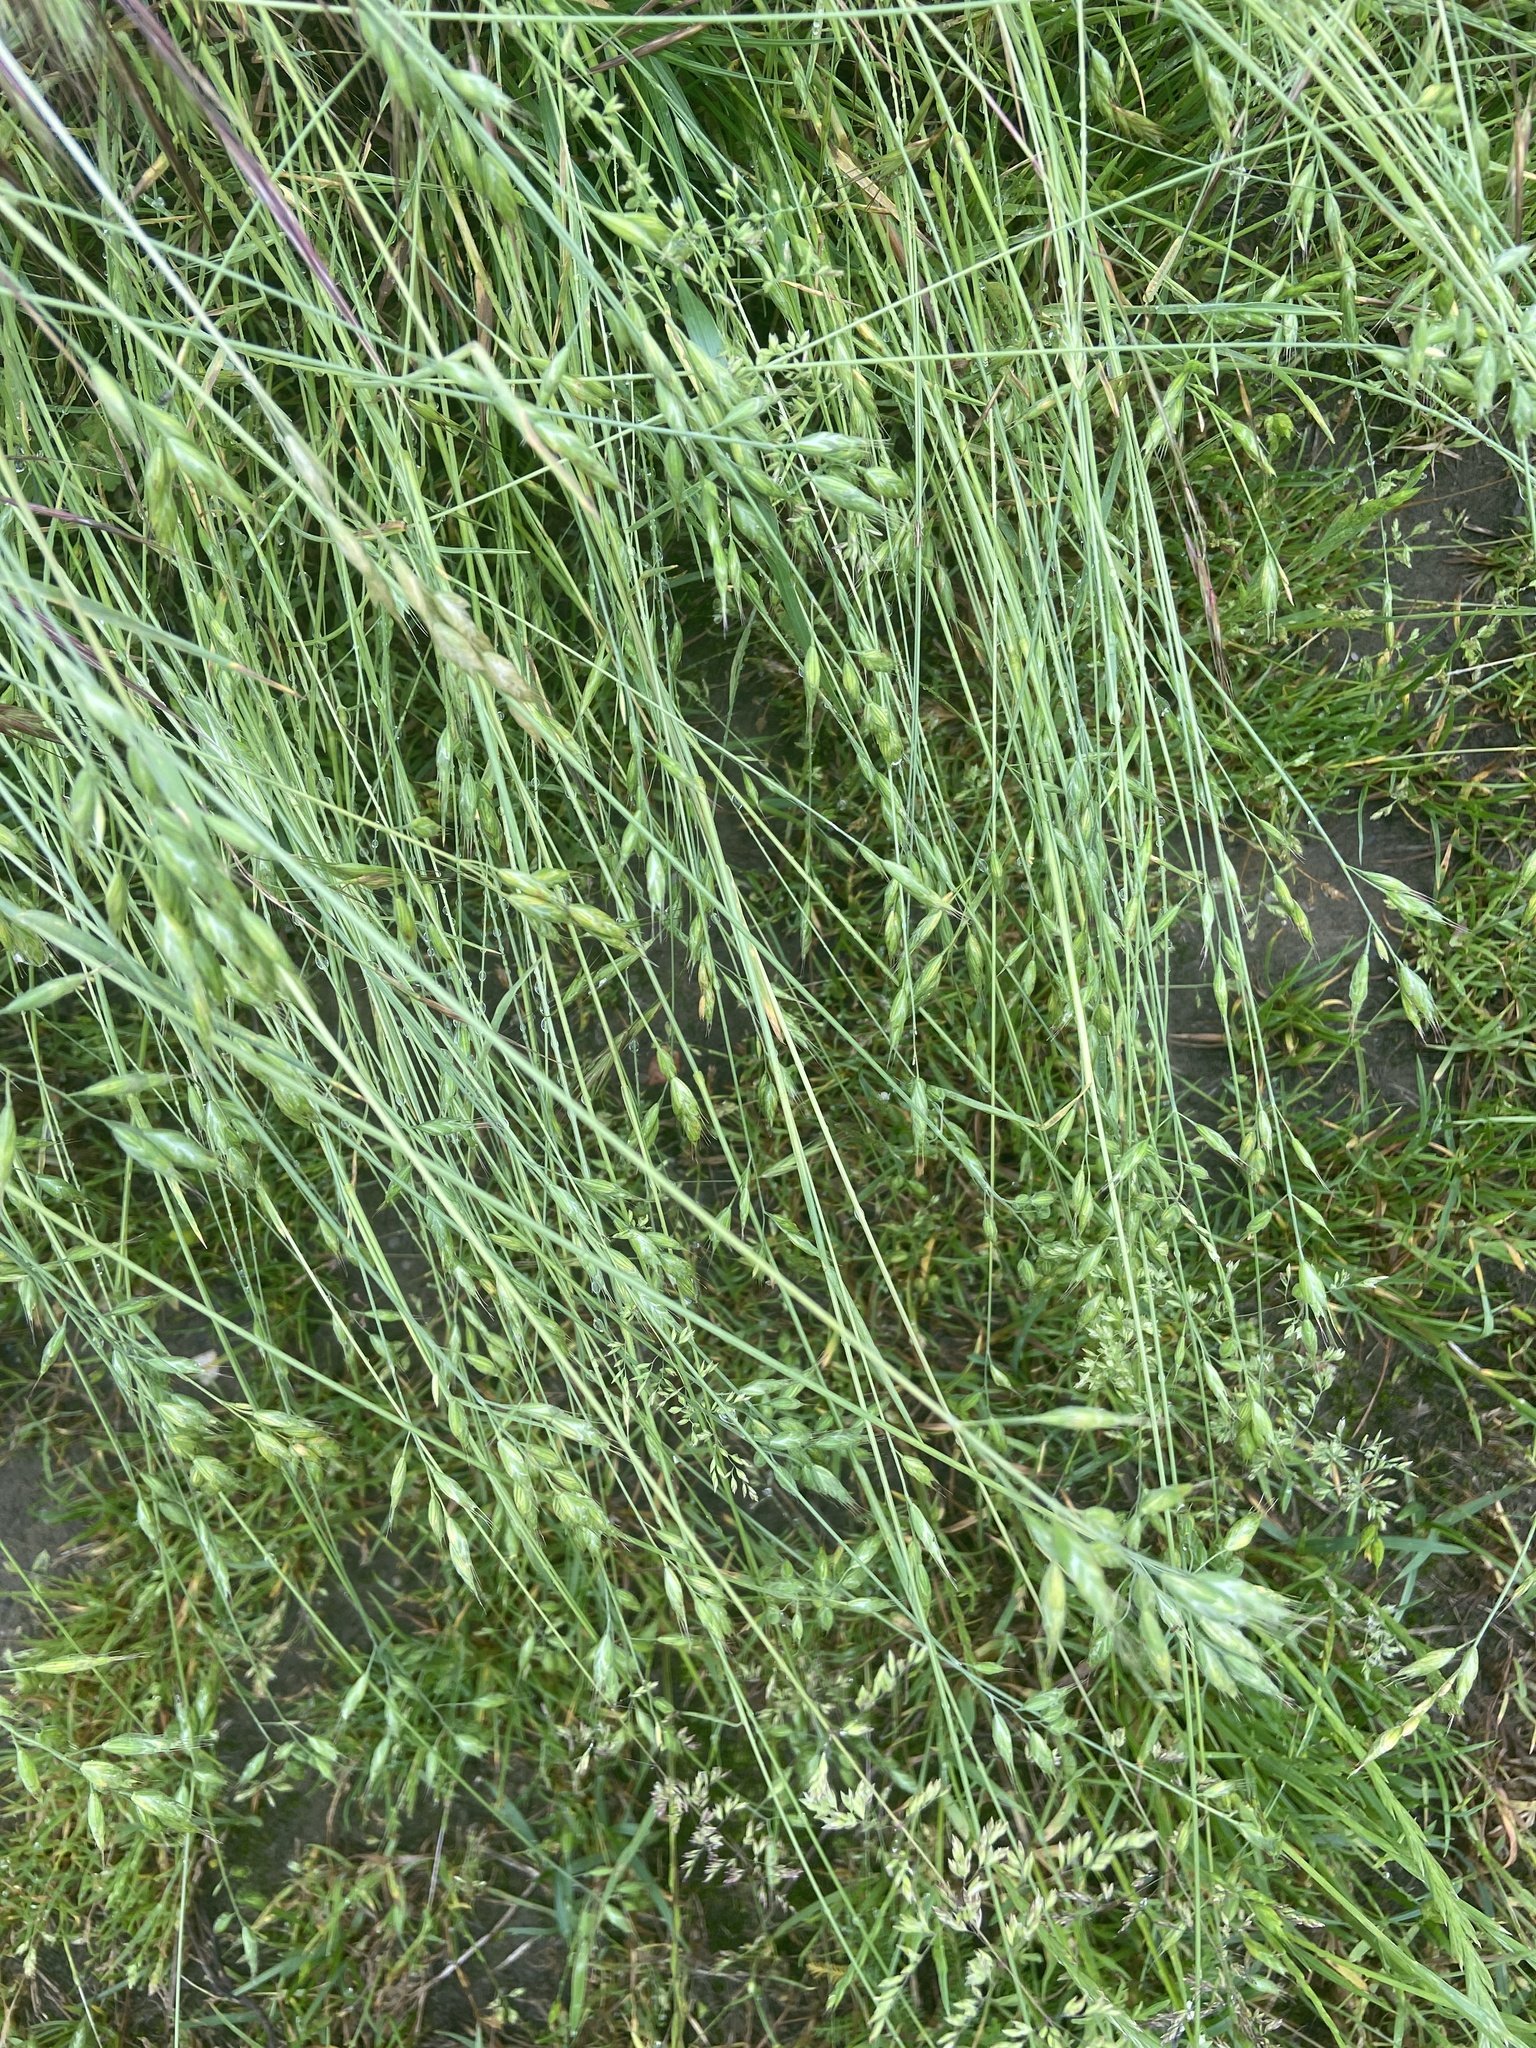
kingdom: Plantae
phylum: Tracheophyta
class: Liliopsida
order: Poales
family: Poaceae
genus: Bromus
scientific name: Bromus hordeaceus
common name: Soft brome
